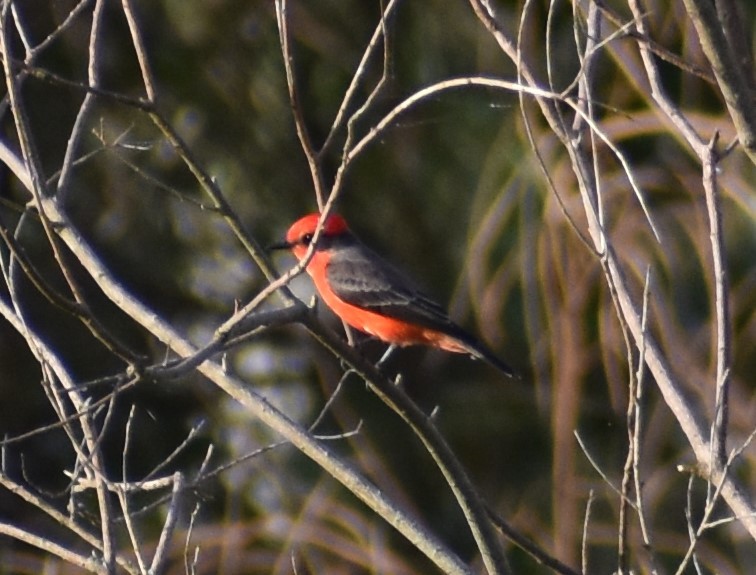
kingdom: Animalia
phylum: Chordata
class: Aves
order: Passeriformes
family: Tyrannidae
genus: Pyrocephalus
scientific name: Pyrocephalus rubinus
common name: Vermilion flycatcher
